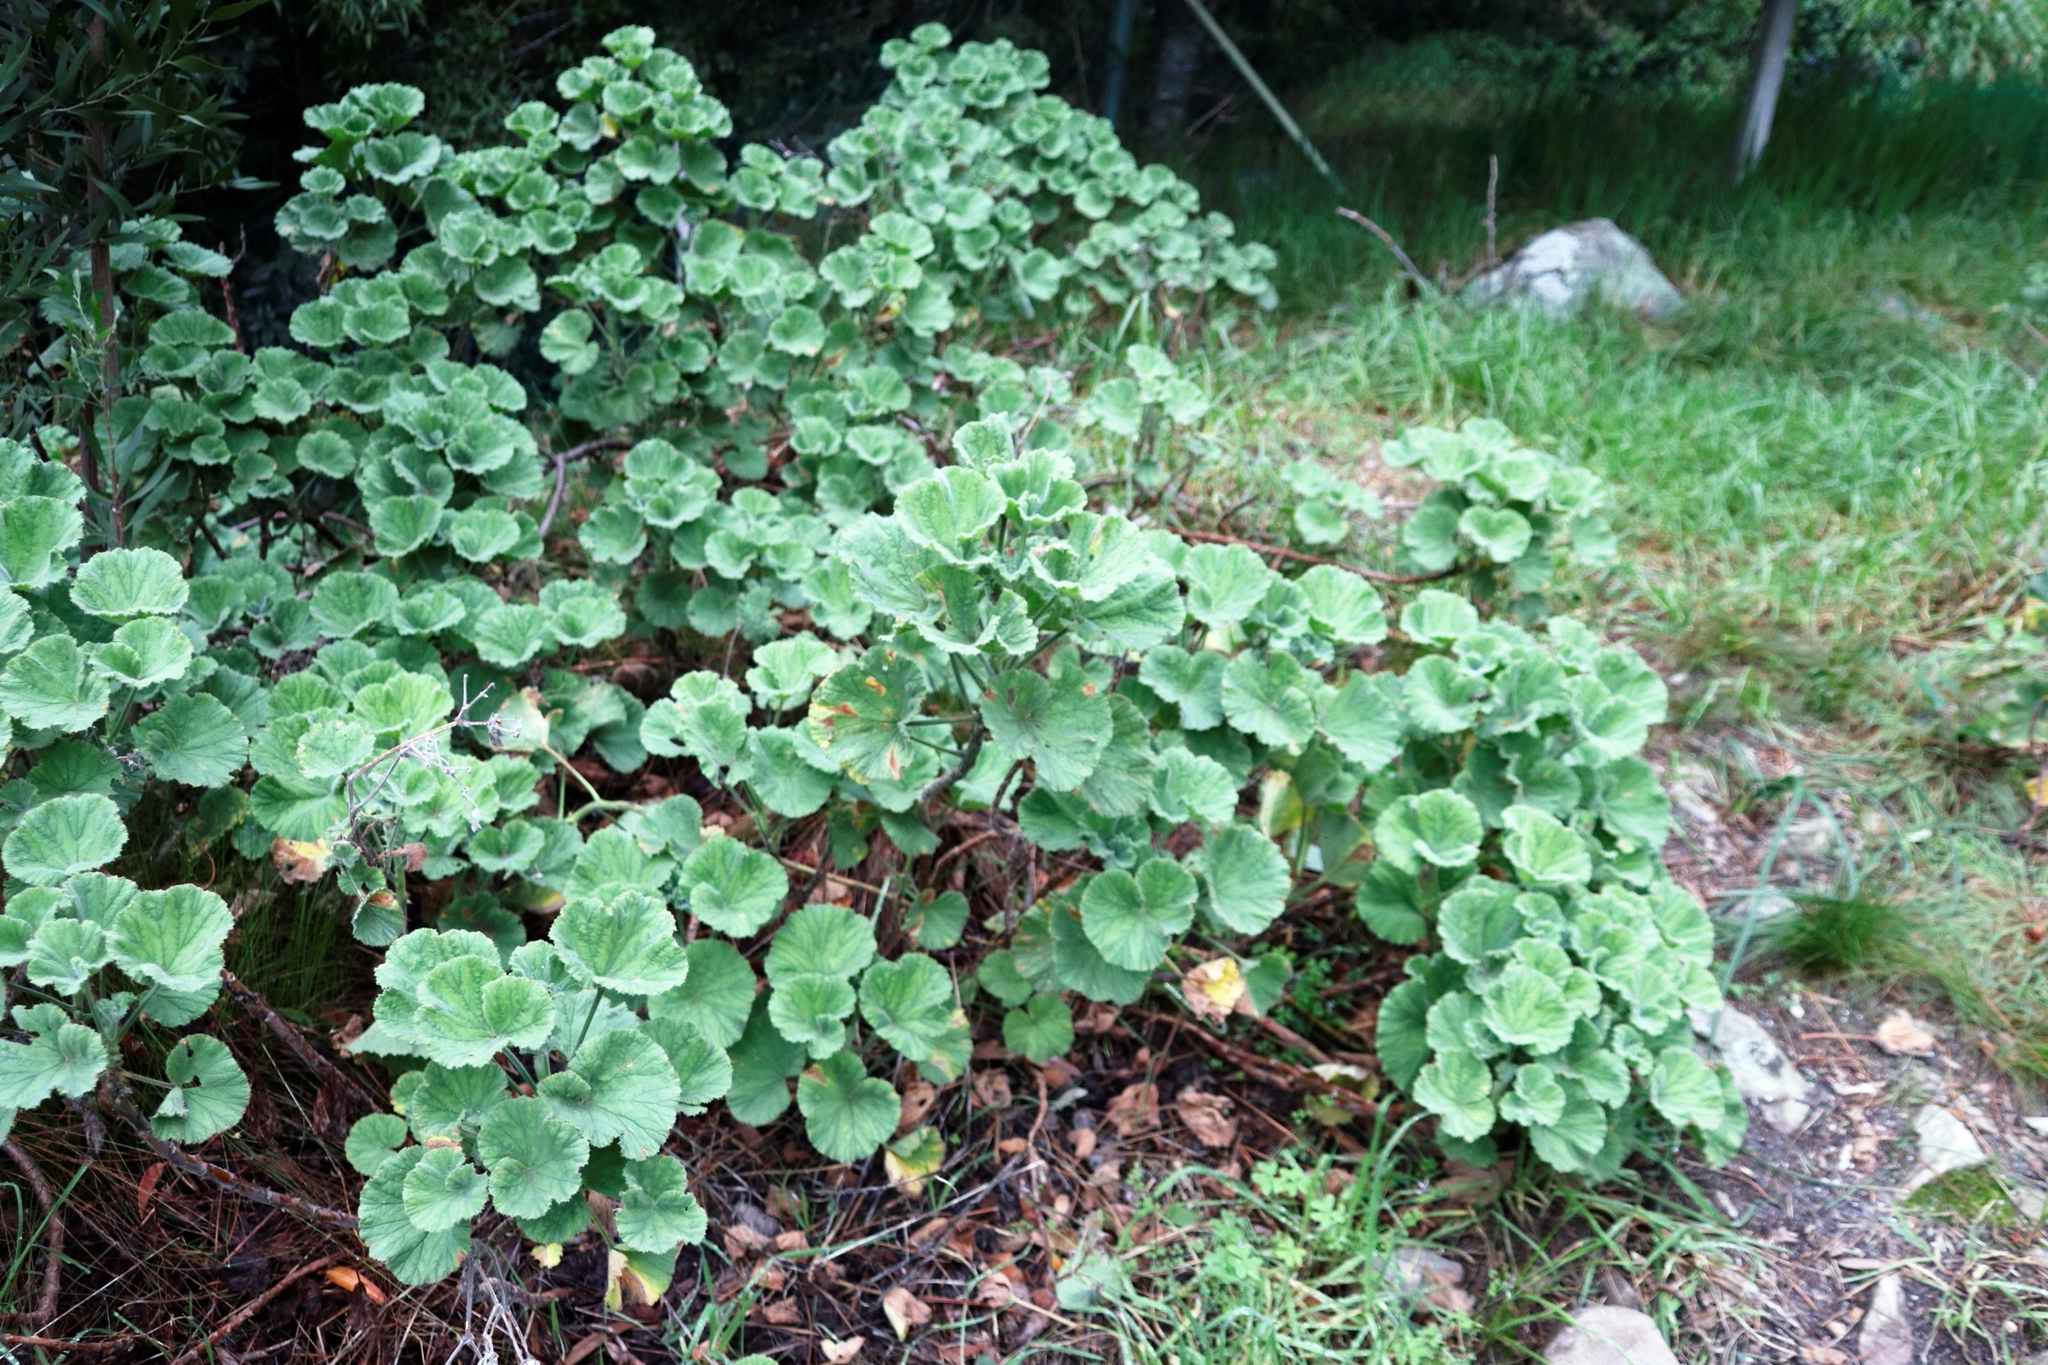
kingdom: Plantae
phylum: Tracheophyta
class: Magnoliopsida
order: Geraniales
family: Geraniaceae
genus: Pelargonium
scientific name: Pelargonium cucullatum
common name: Tree pelargonium
